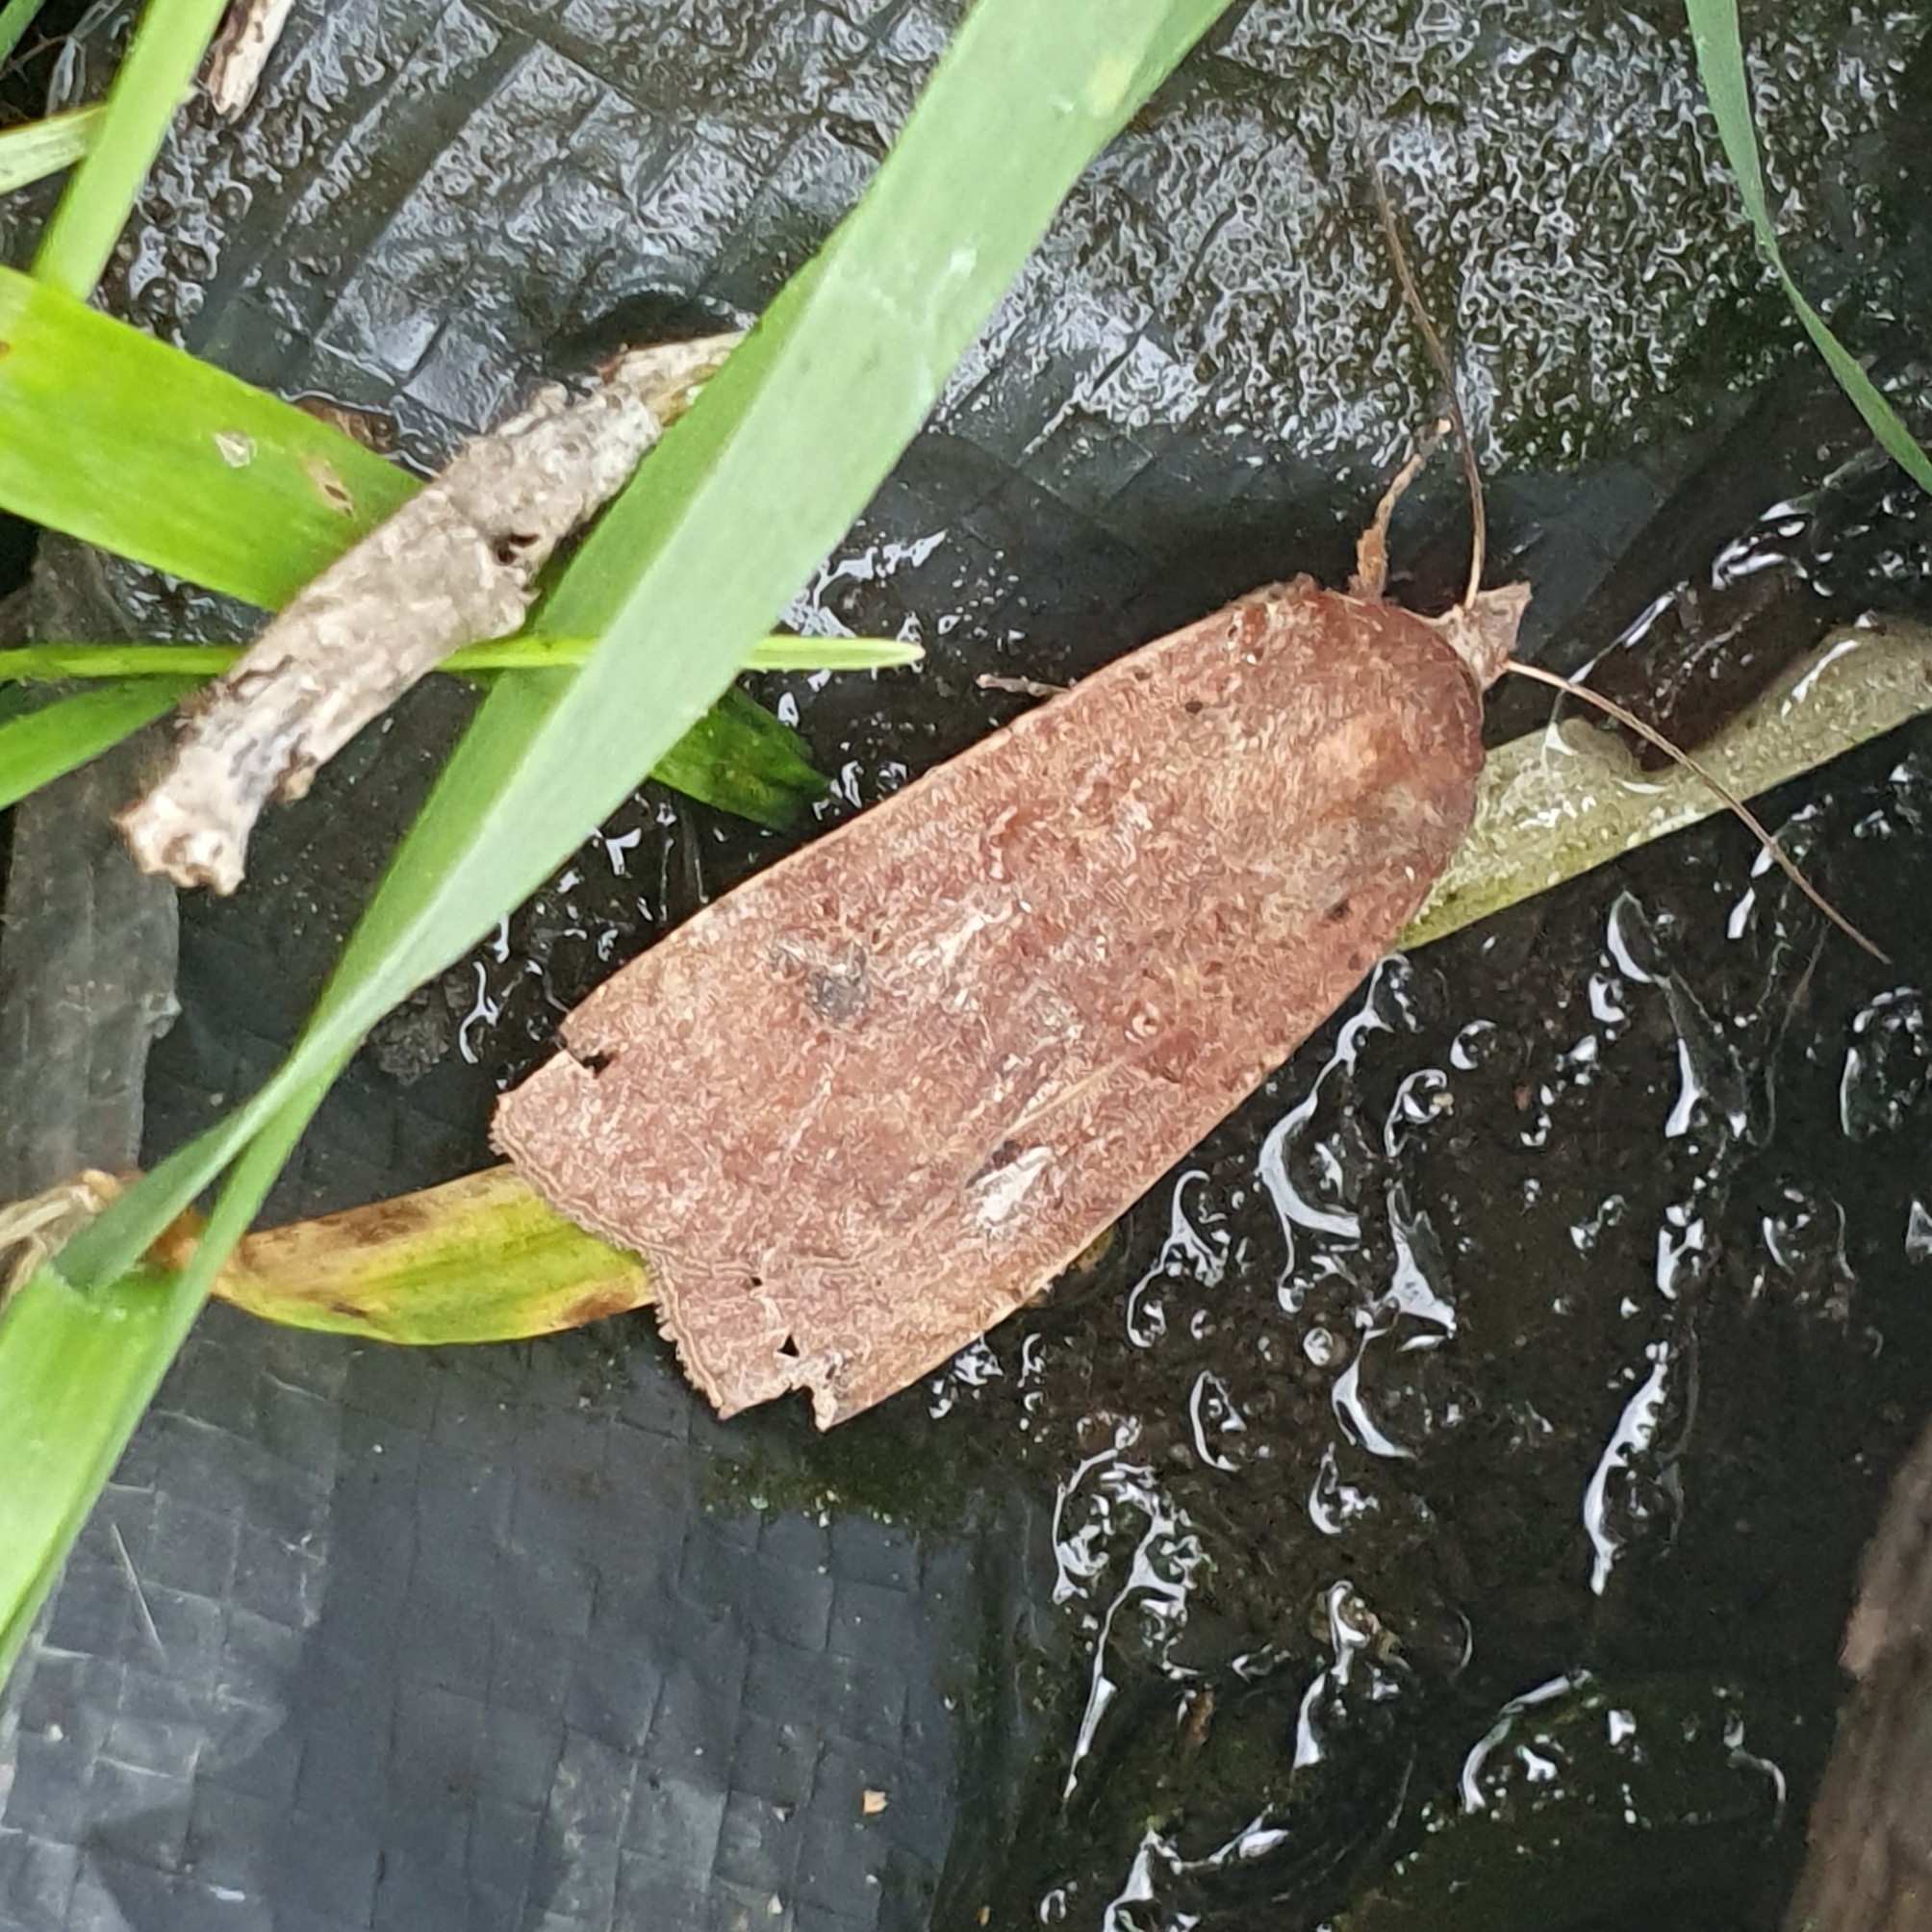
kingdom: Animalia
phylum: Arthropoda
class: Insecta
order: Lepidoptera
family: Noctuidae
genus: Noctua
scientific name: Noctua pronuba
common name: Large yellow underwing
